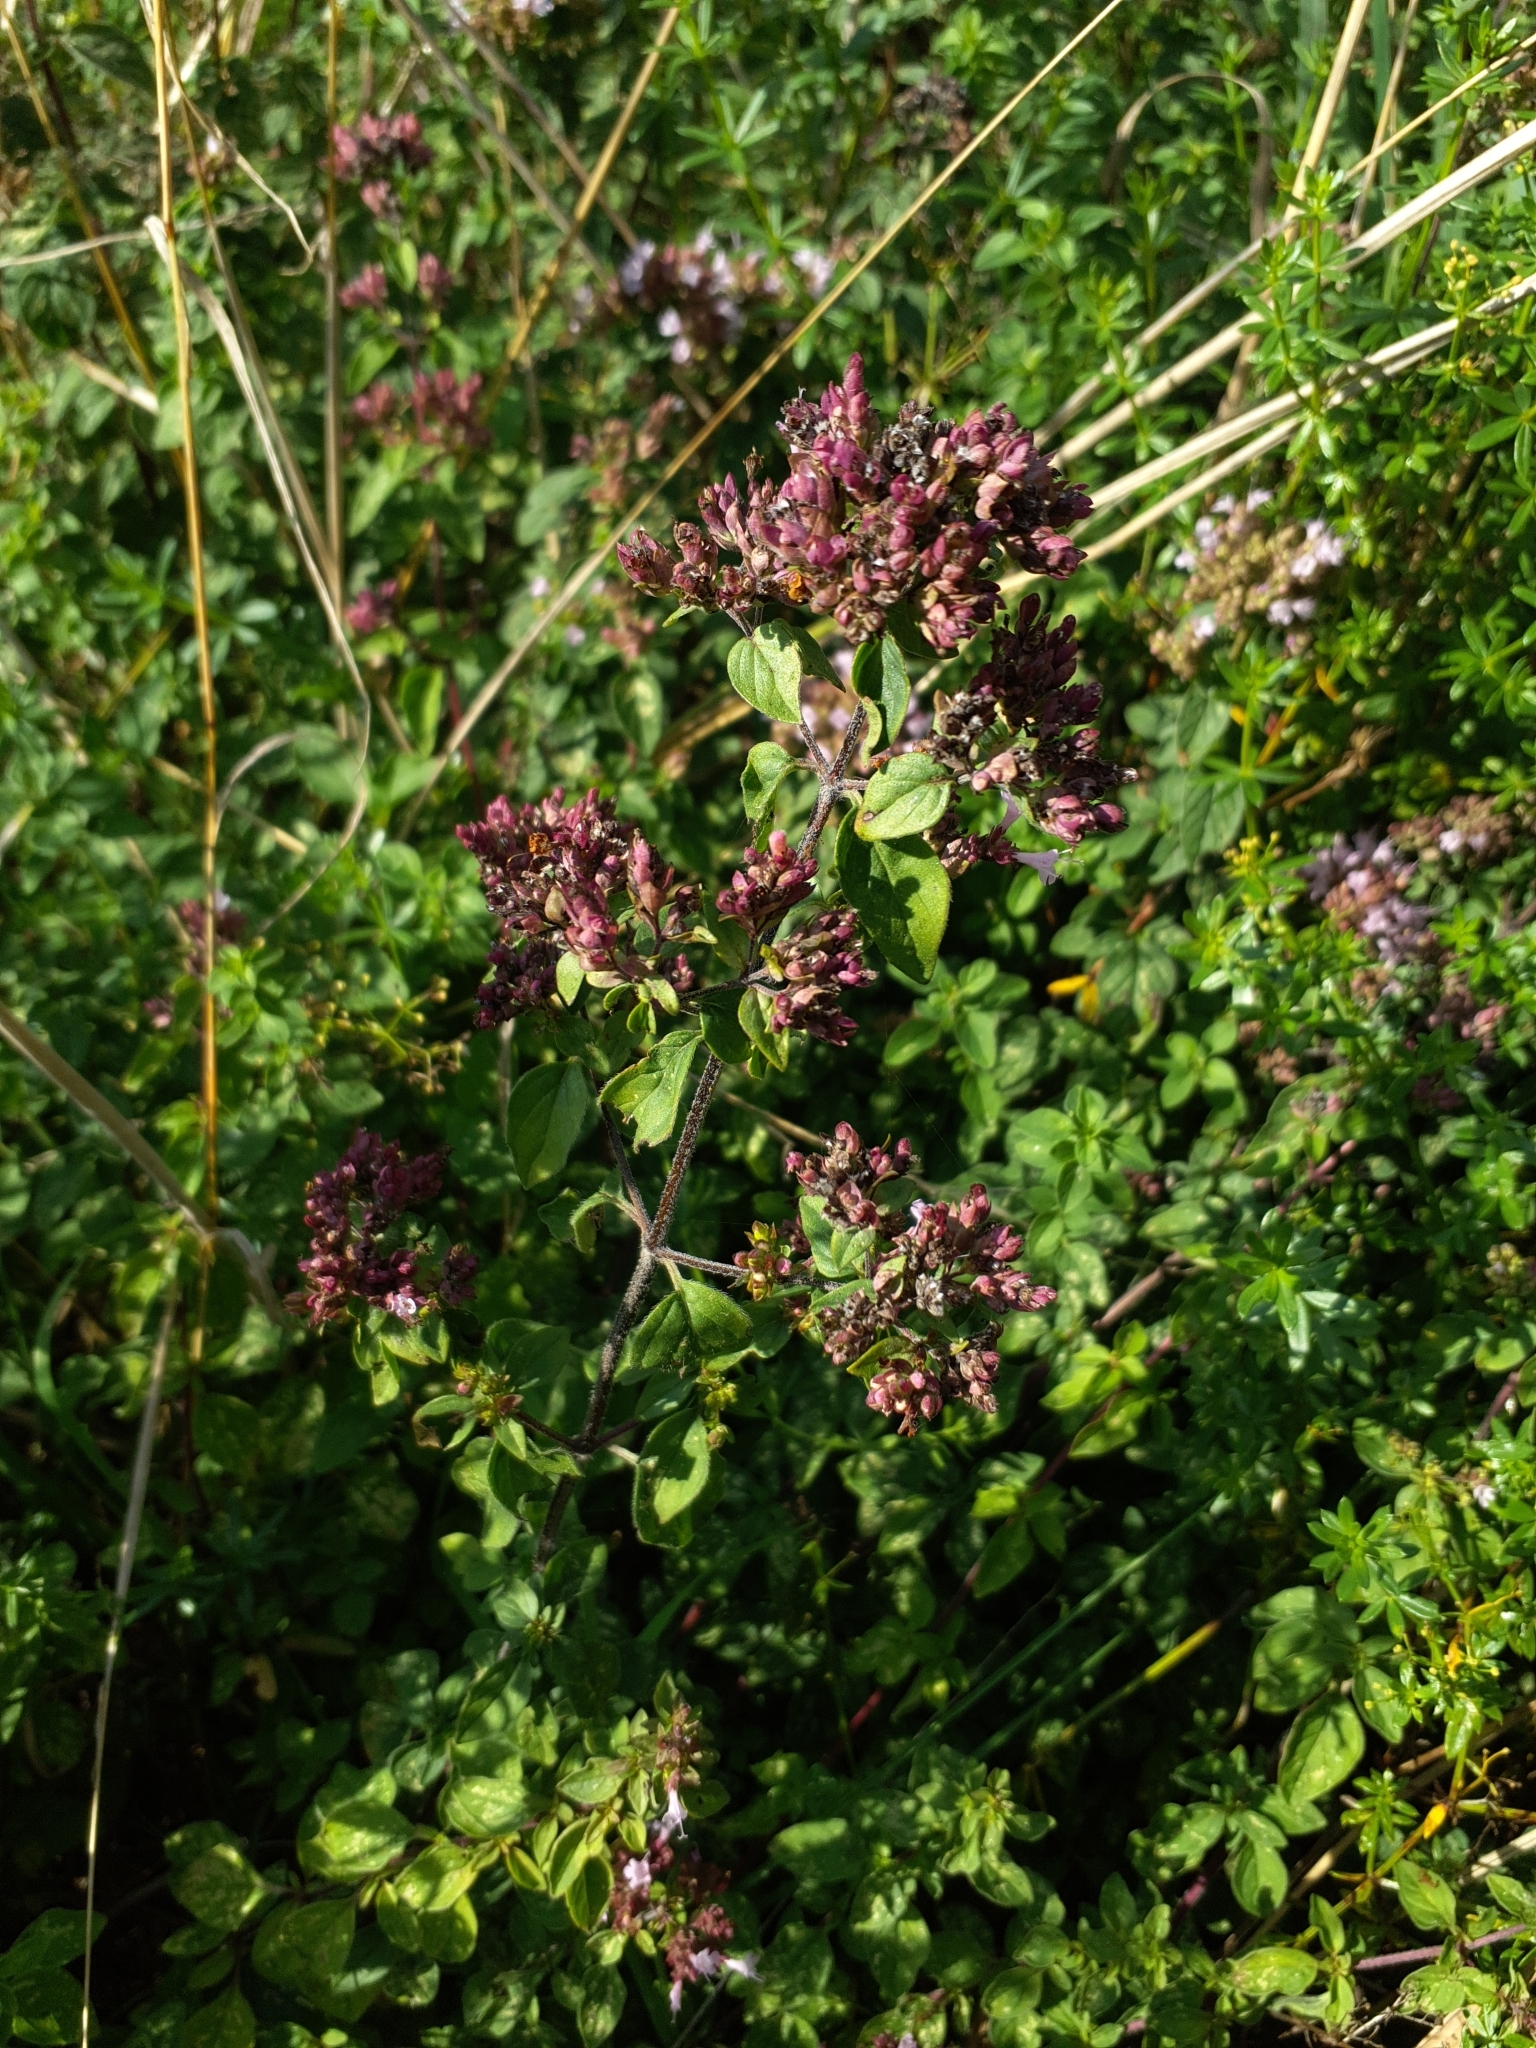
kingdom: Plantae
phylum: Tracheophyta
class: Magnoliopsida
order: Lamiales
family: Lamiaceae
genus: Origanum
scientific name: Origanum vulgare
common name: Wild marjoram
